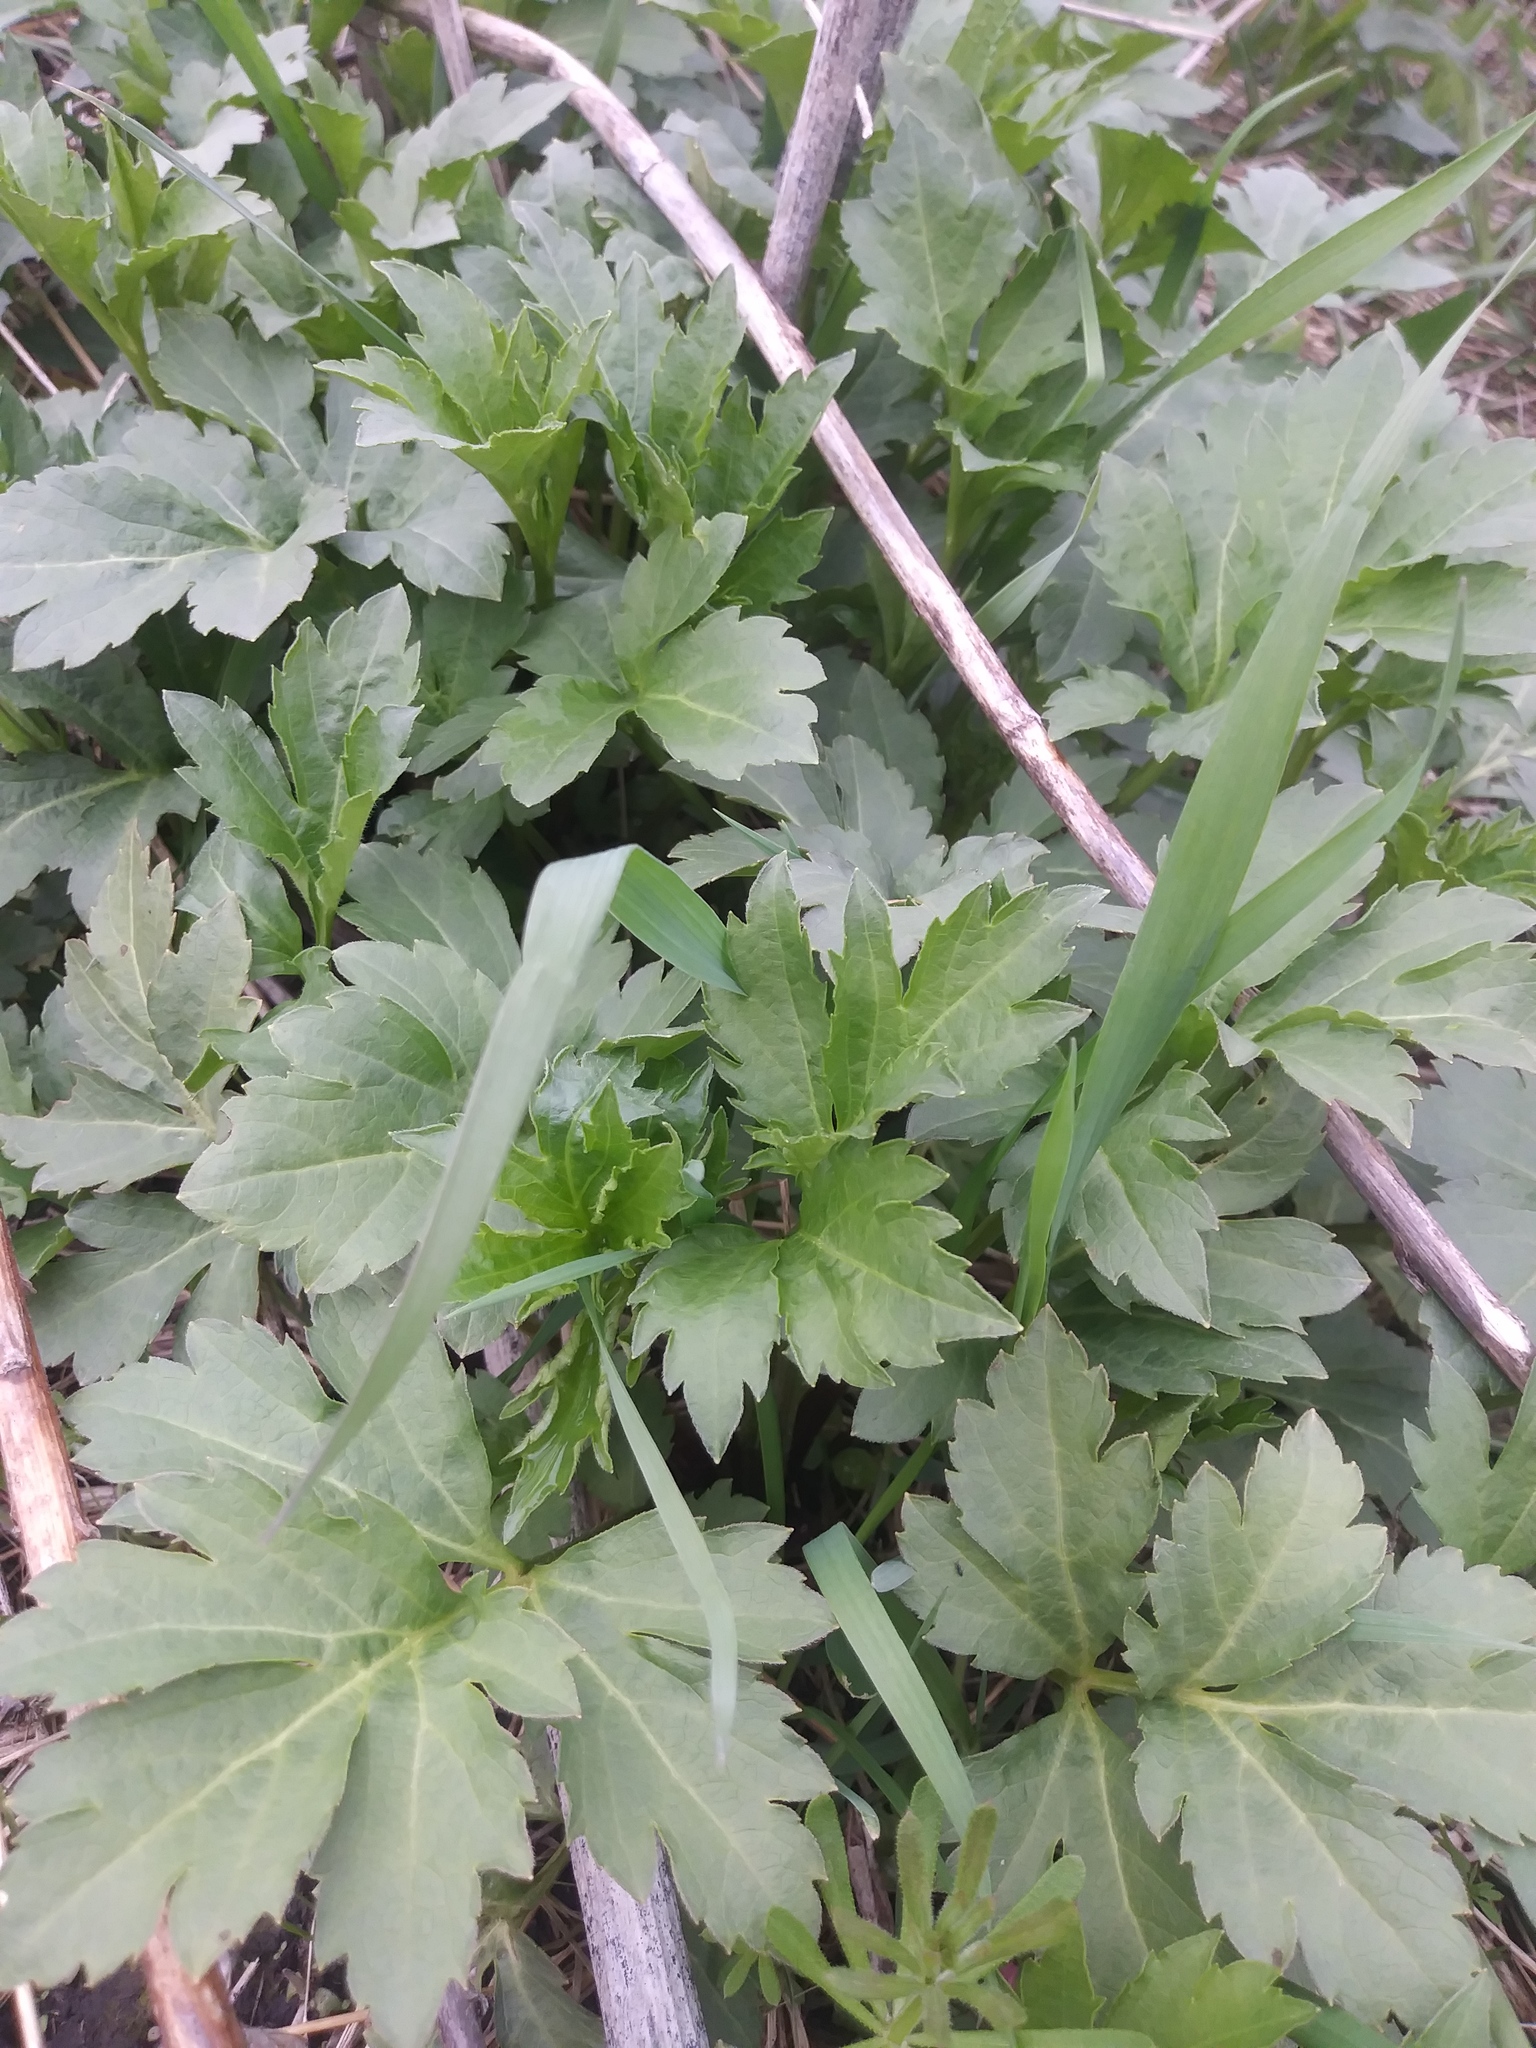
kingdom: Plantae
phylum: Tracheophyta
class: Magnoliopsida
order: Asterales
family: Asteraceae
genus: Rudbeckia
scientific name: Rudbeckia laciniata
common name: Coneflower
